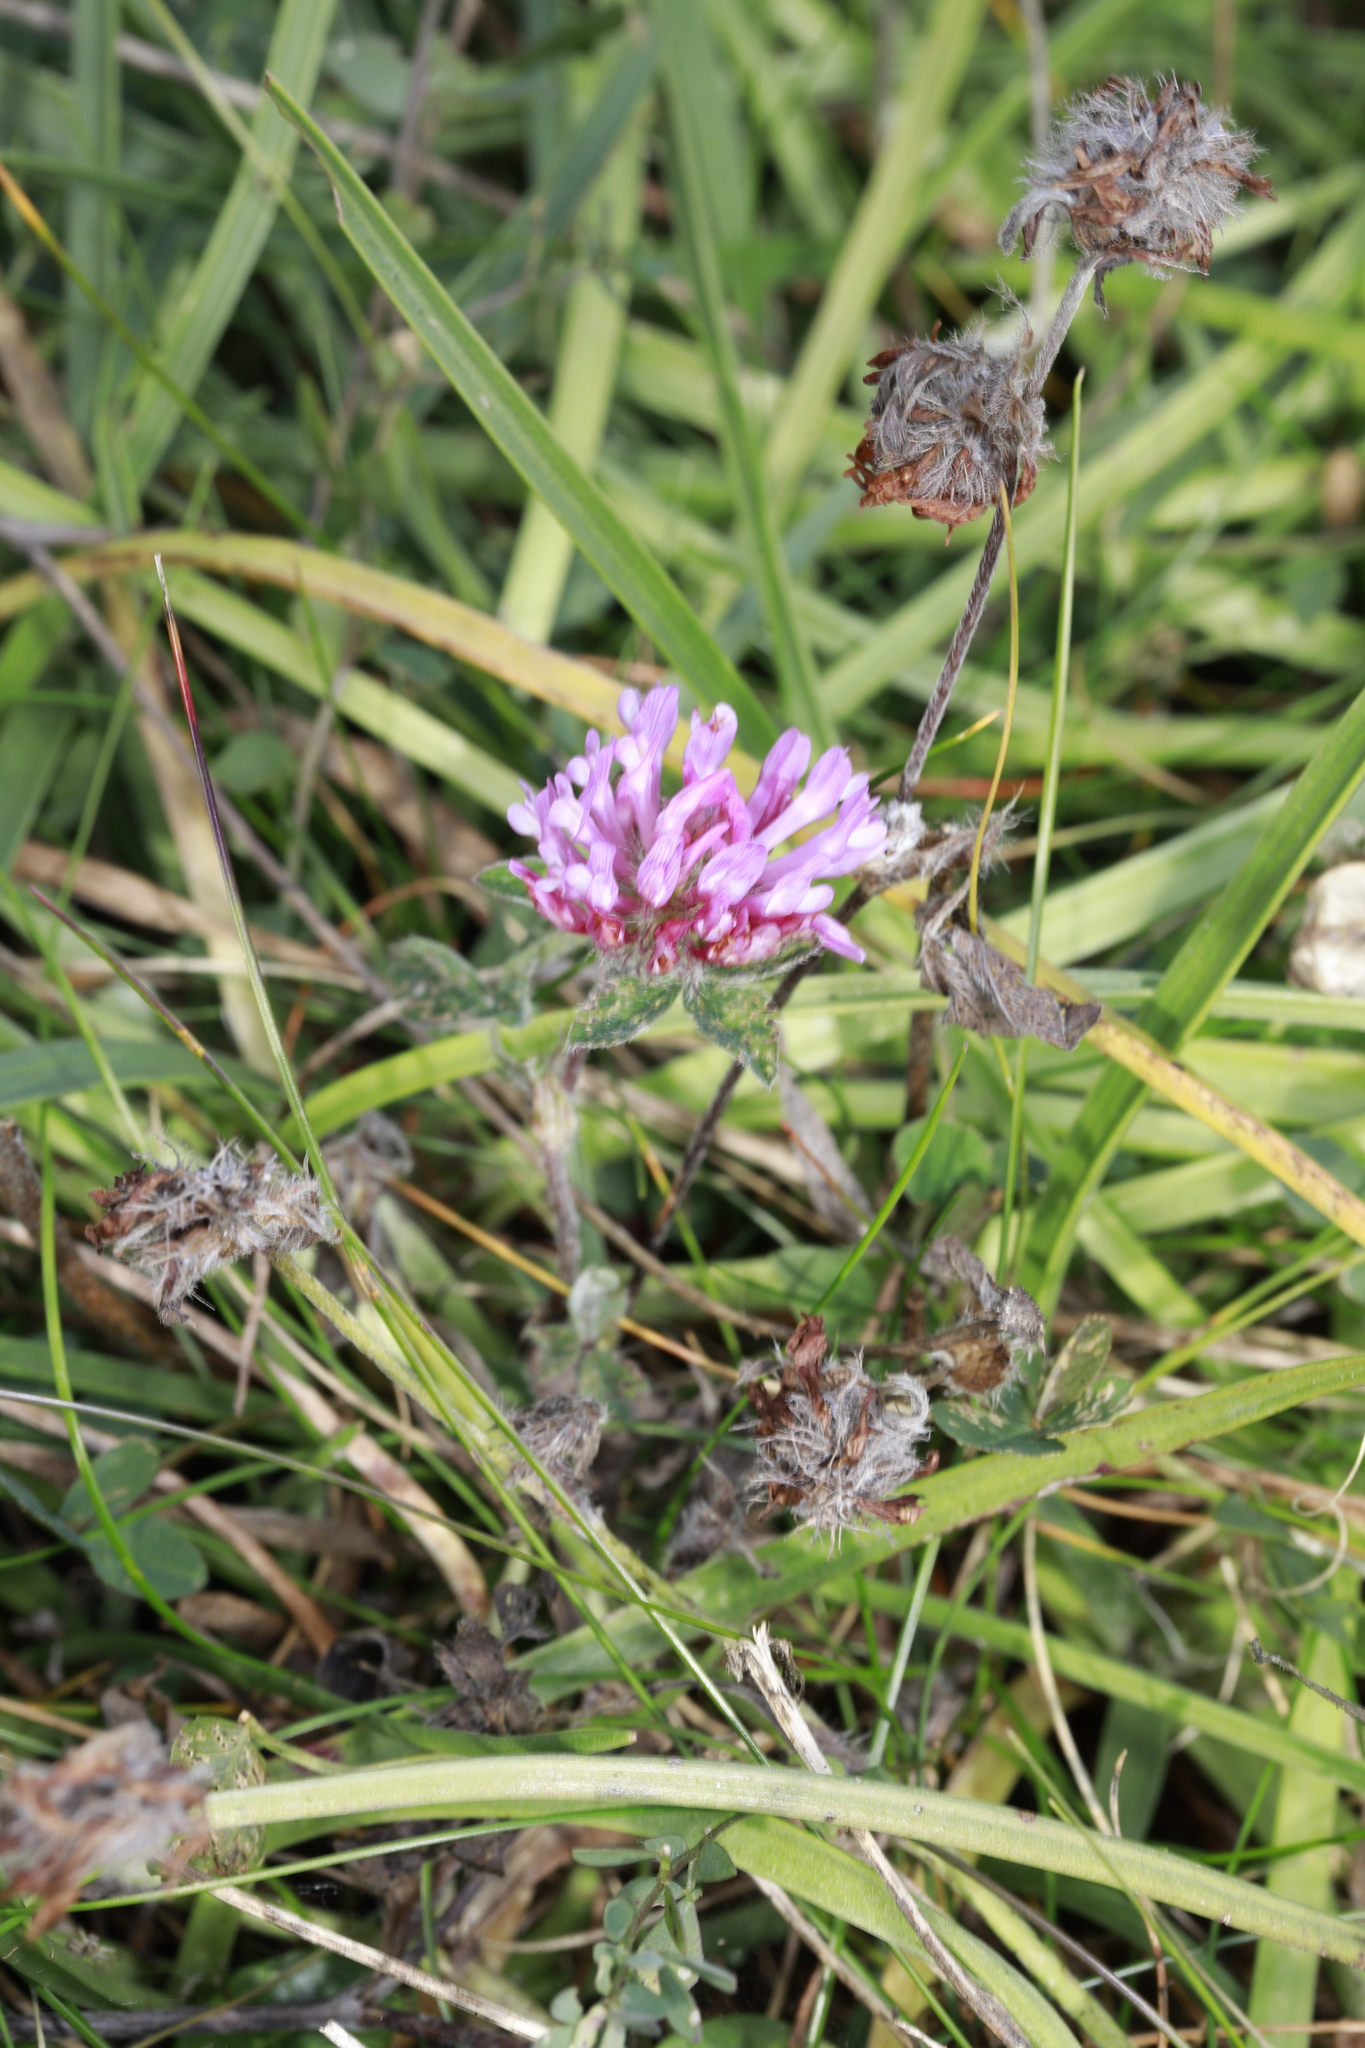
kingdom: Plantae
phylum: Tracheophyta
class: Magnoliopsida
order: Fabales
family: Fabaceae
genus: Trifolium
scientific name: Trifolium pratense
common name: Red clover
